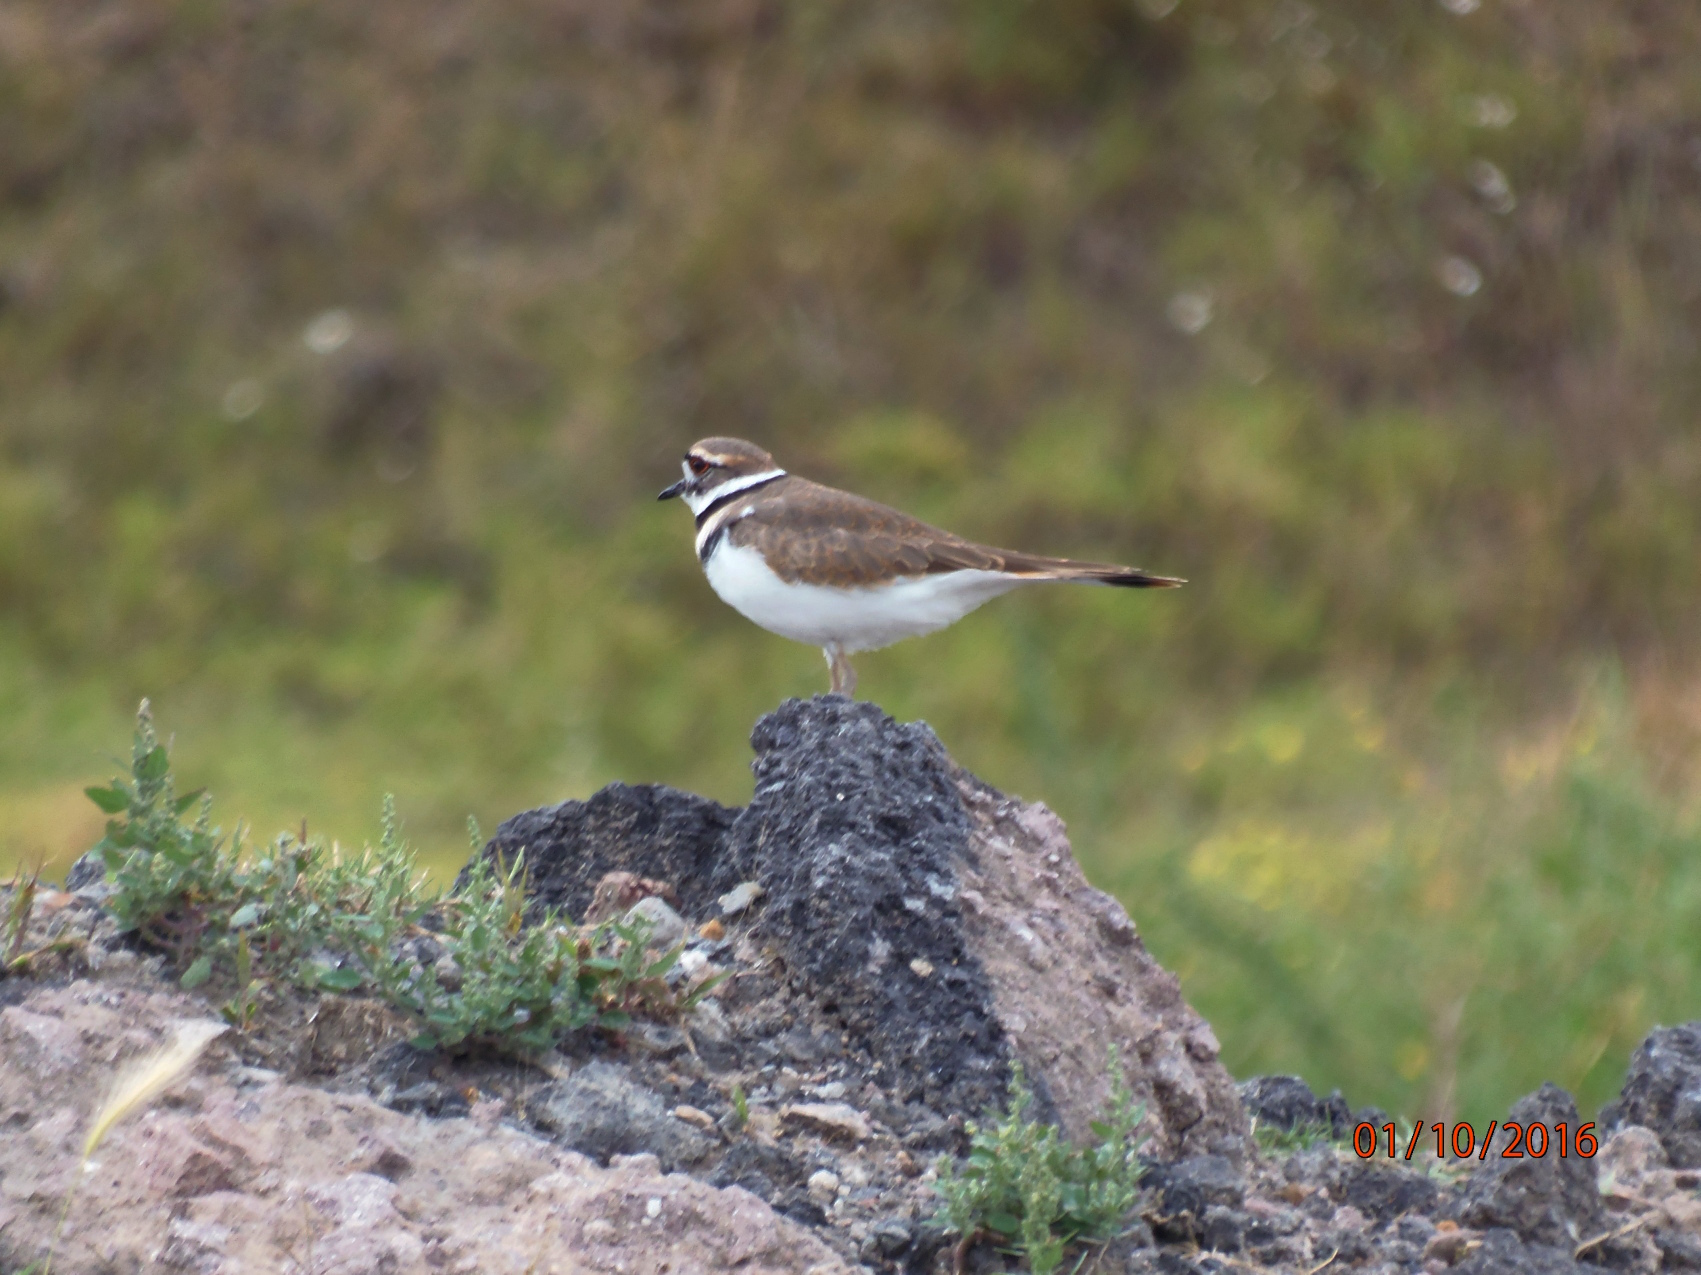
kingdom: Animalia
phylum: Chordata
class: Aves
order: Charadriiformes
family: Charadriidae
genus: Charadrius
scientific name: Charadrius vociferus
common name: Killdeer
